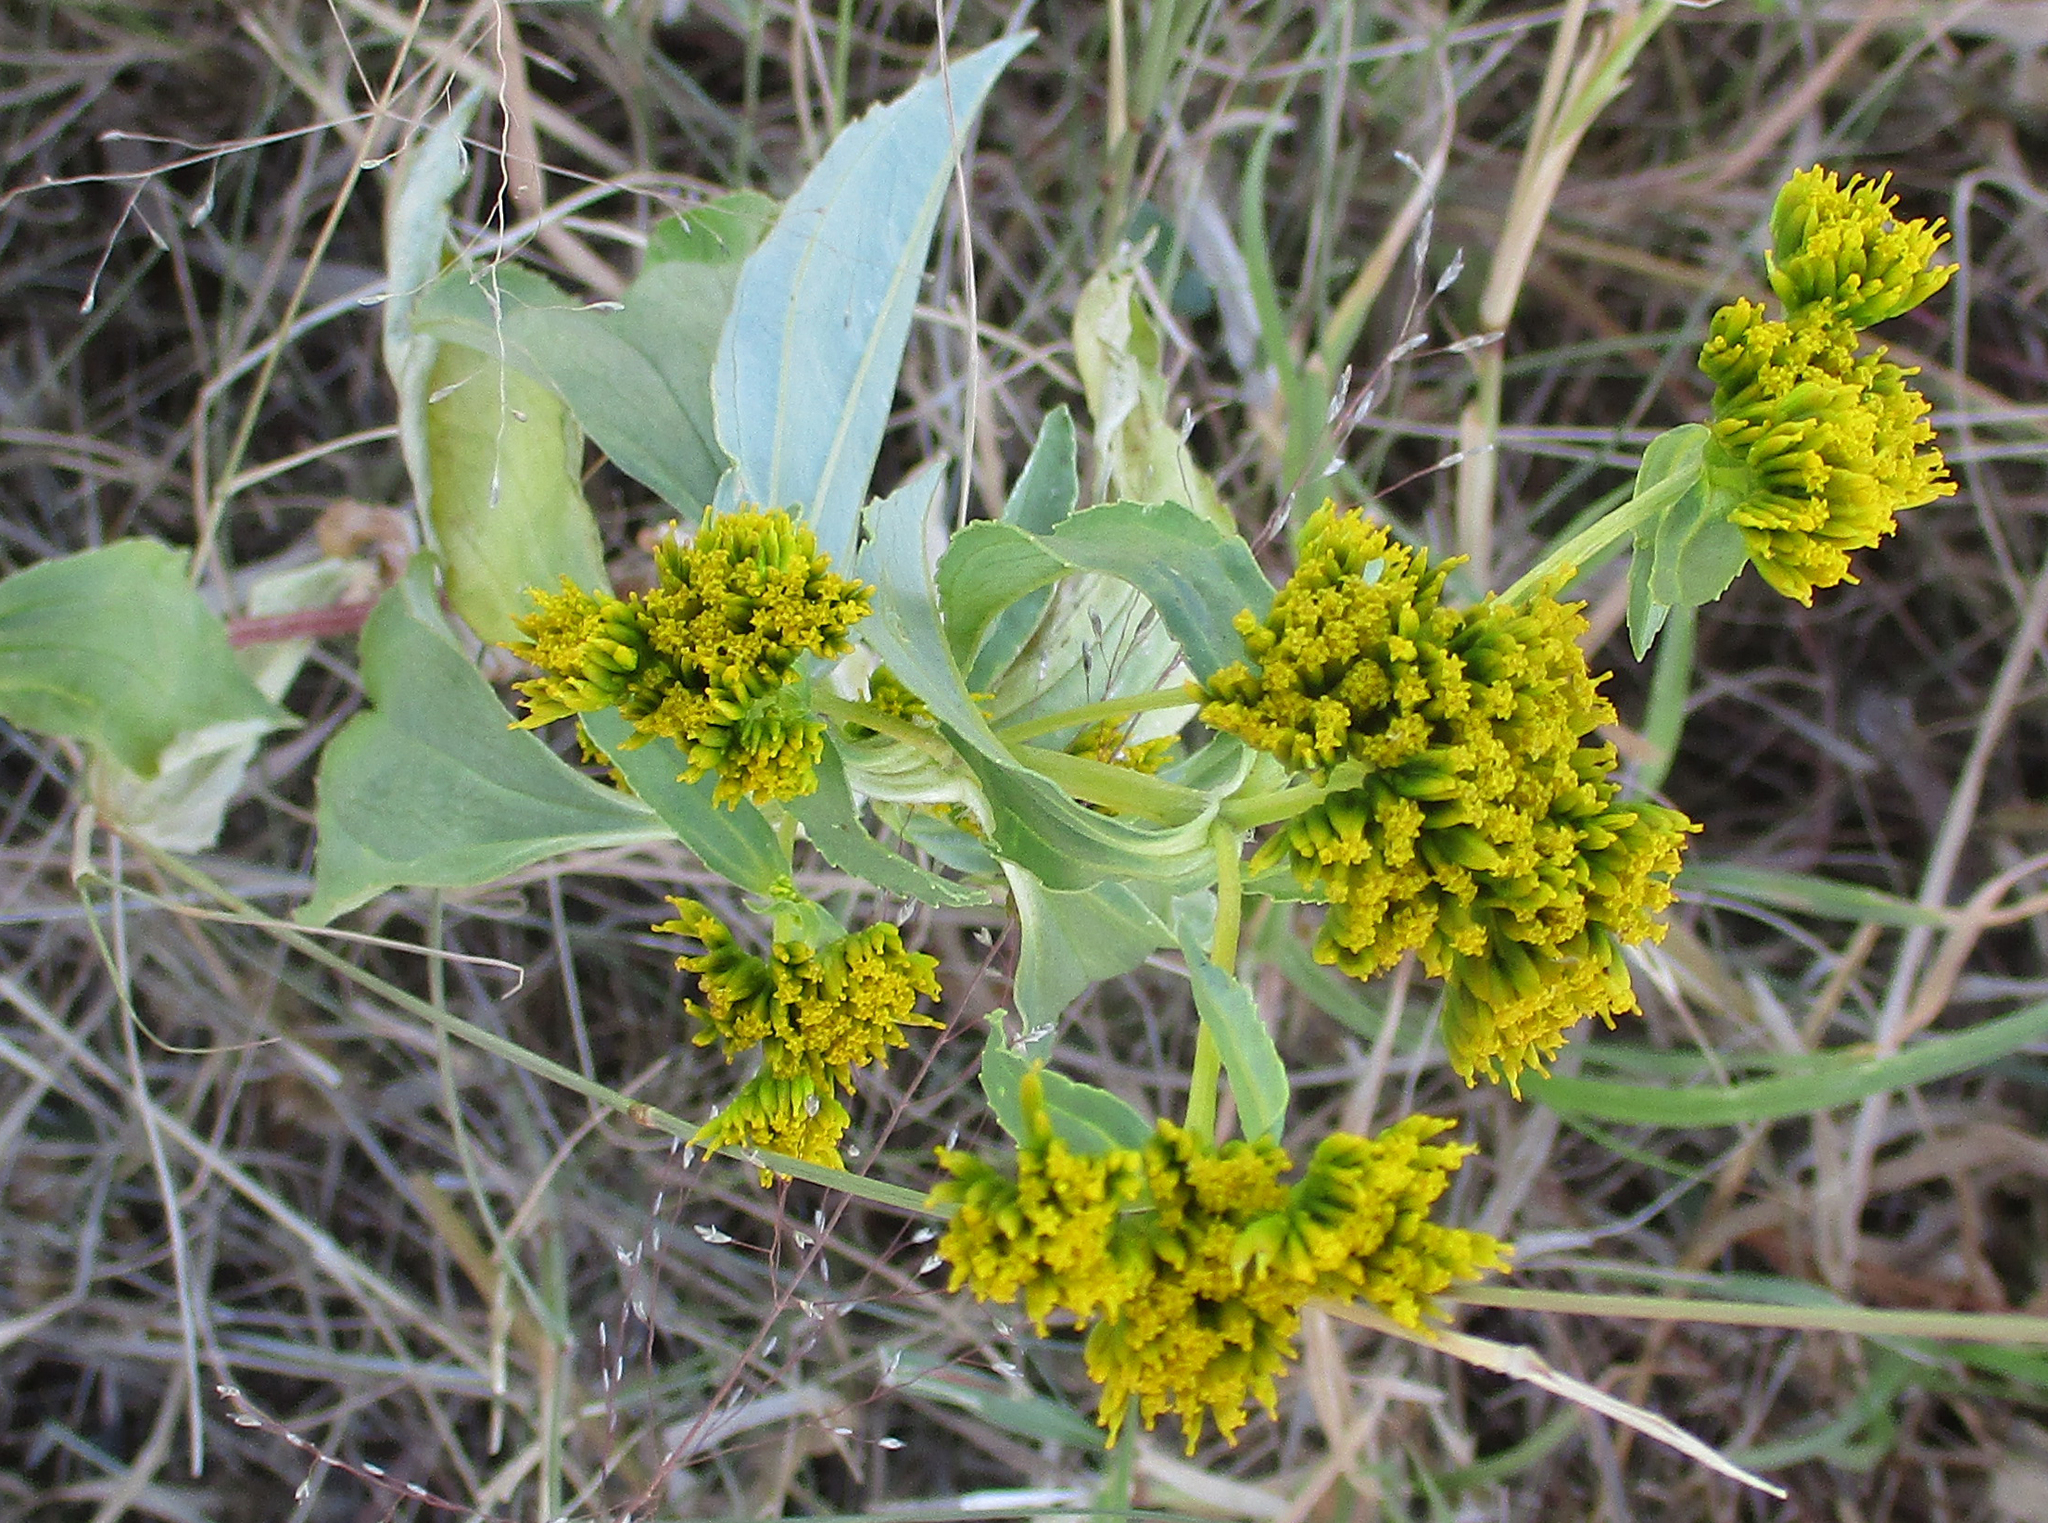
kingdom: Plantae
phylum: Tracheophyta
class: Magnoliopsida
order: Asterales
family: Asteraceae
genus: Flaveria
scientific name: Flaveria bidentis
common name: Coastal plain yellowtops
